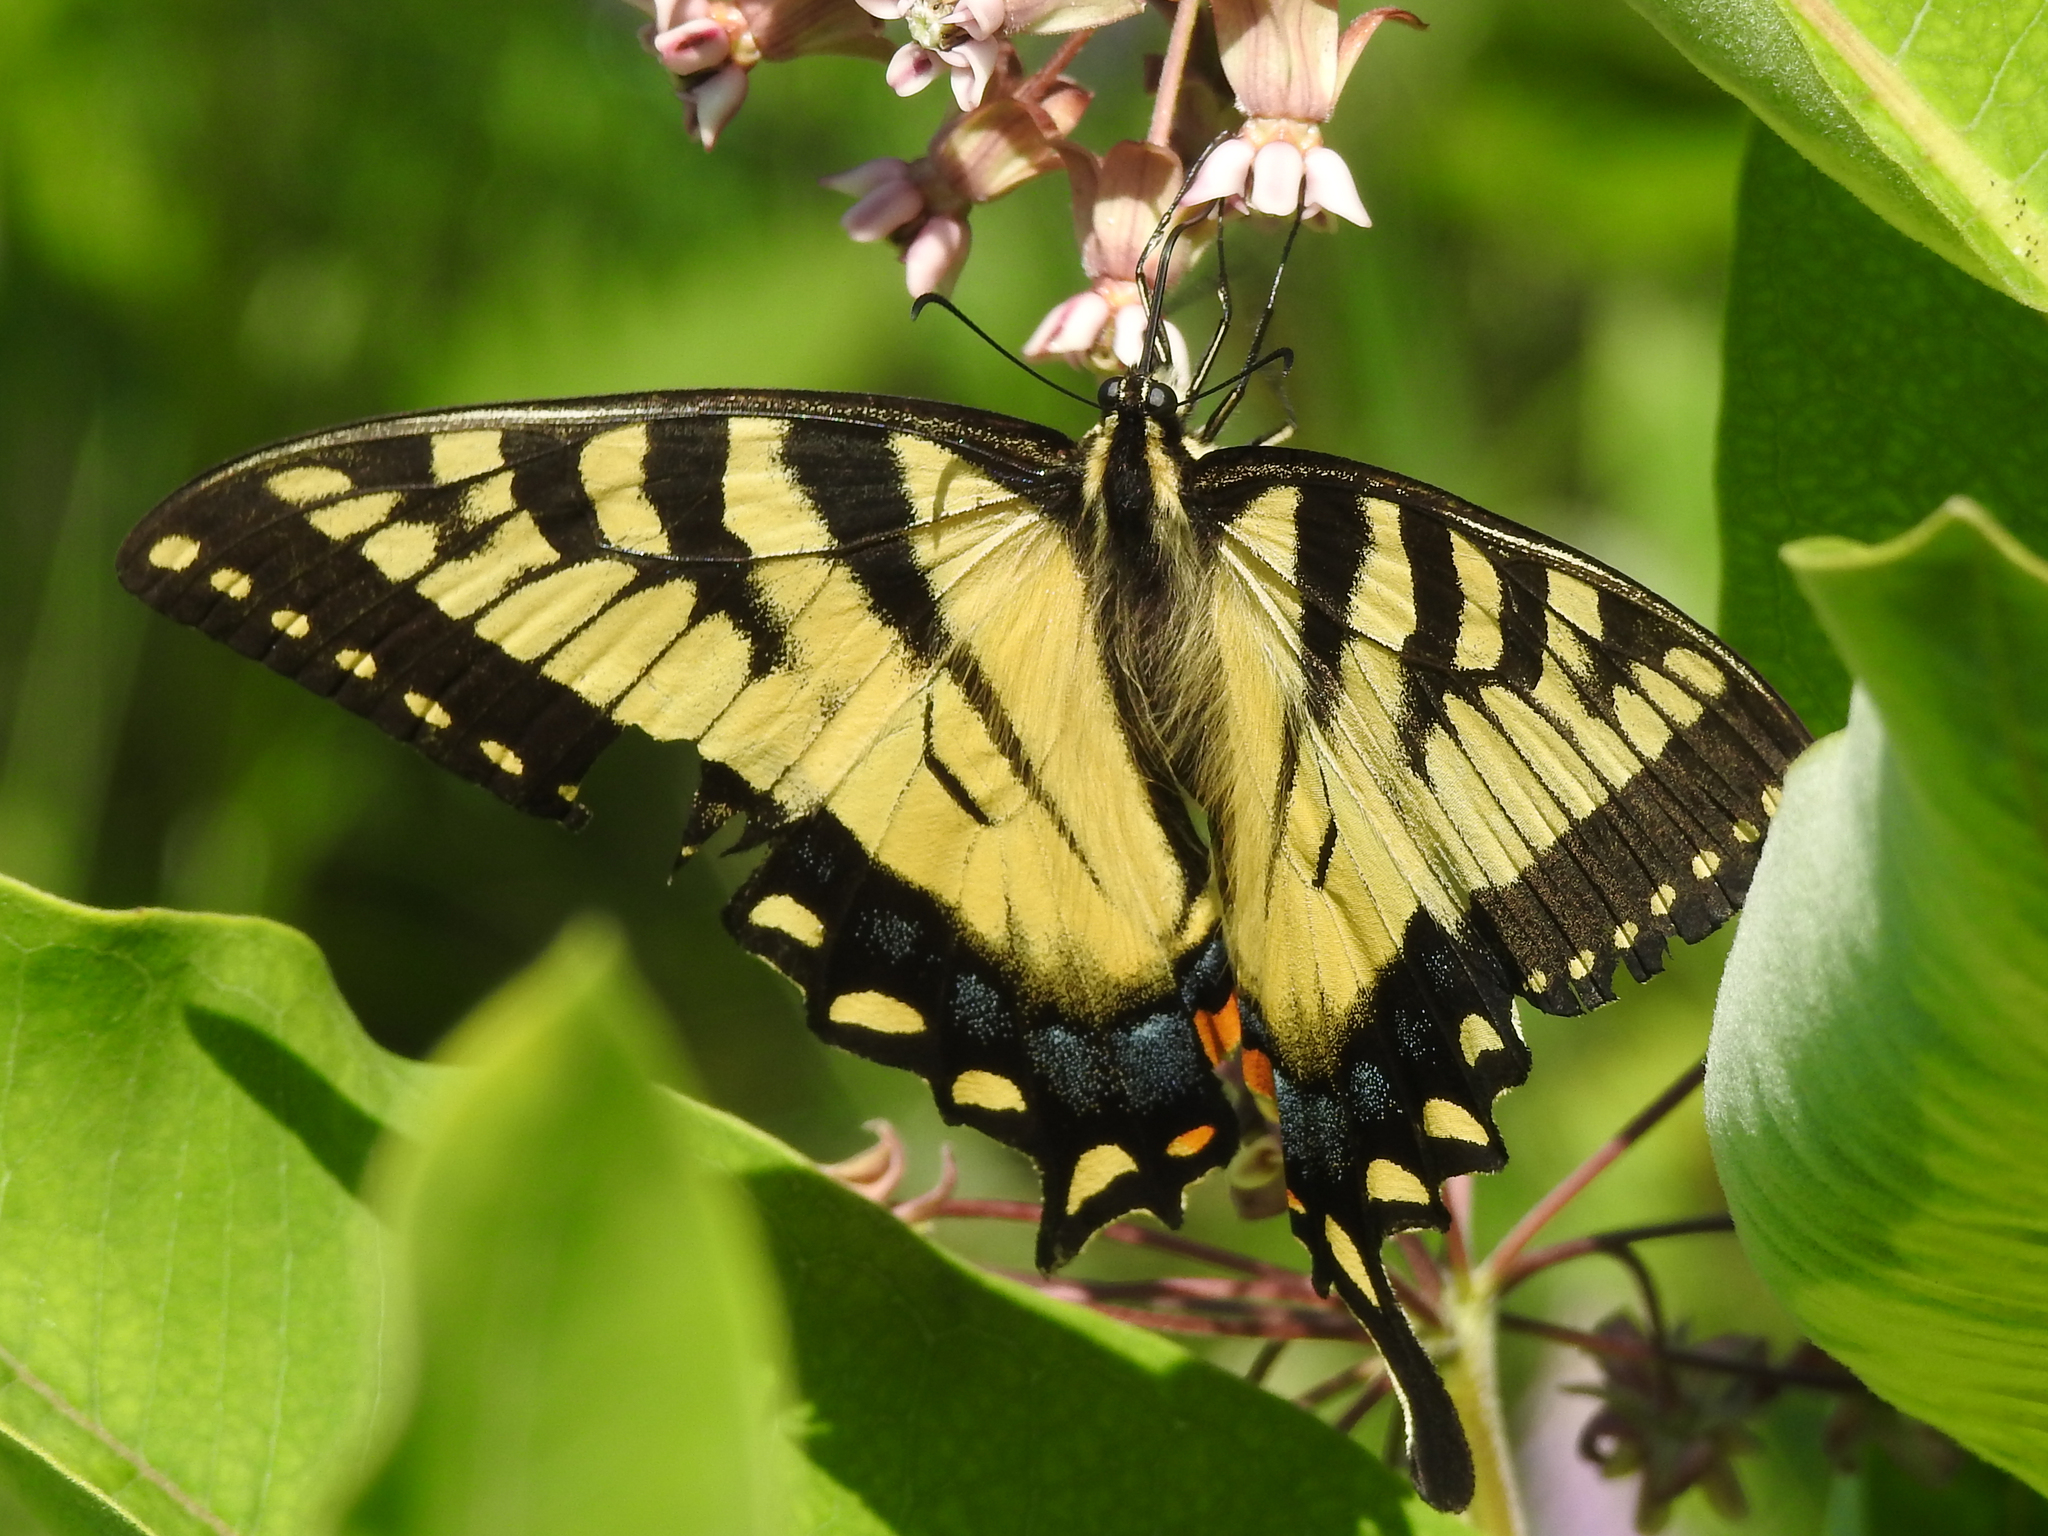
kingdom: Animalia
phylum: Arthropoda
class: Insecta
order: Lepidoptera
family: Papilionidae
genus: Papilio
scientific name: Papilio glaucus
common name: Tiger swallowtail
